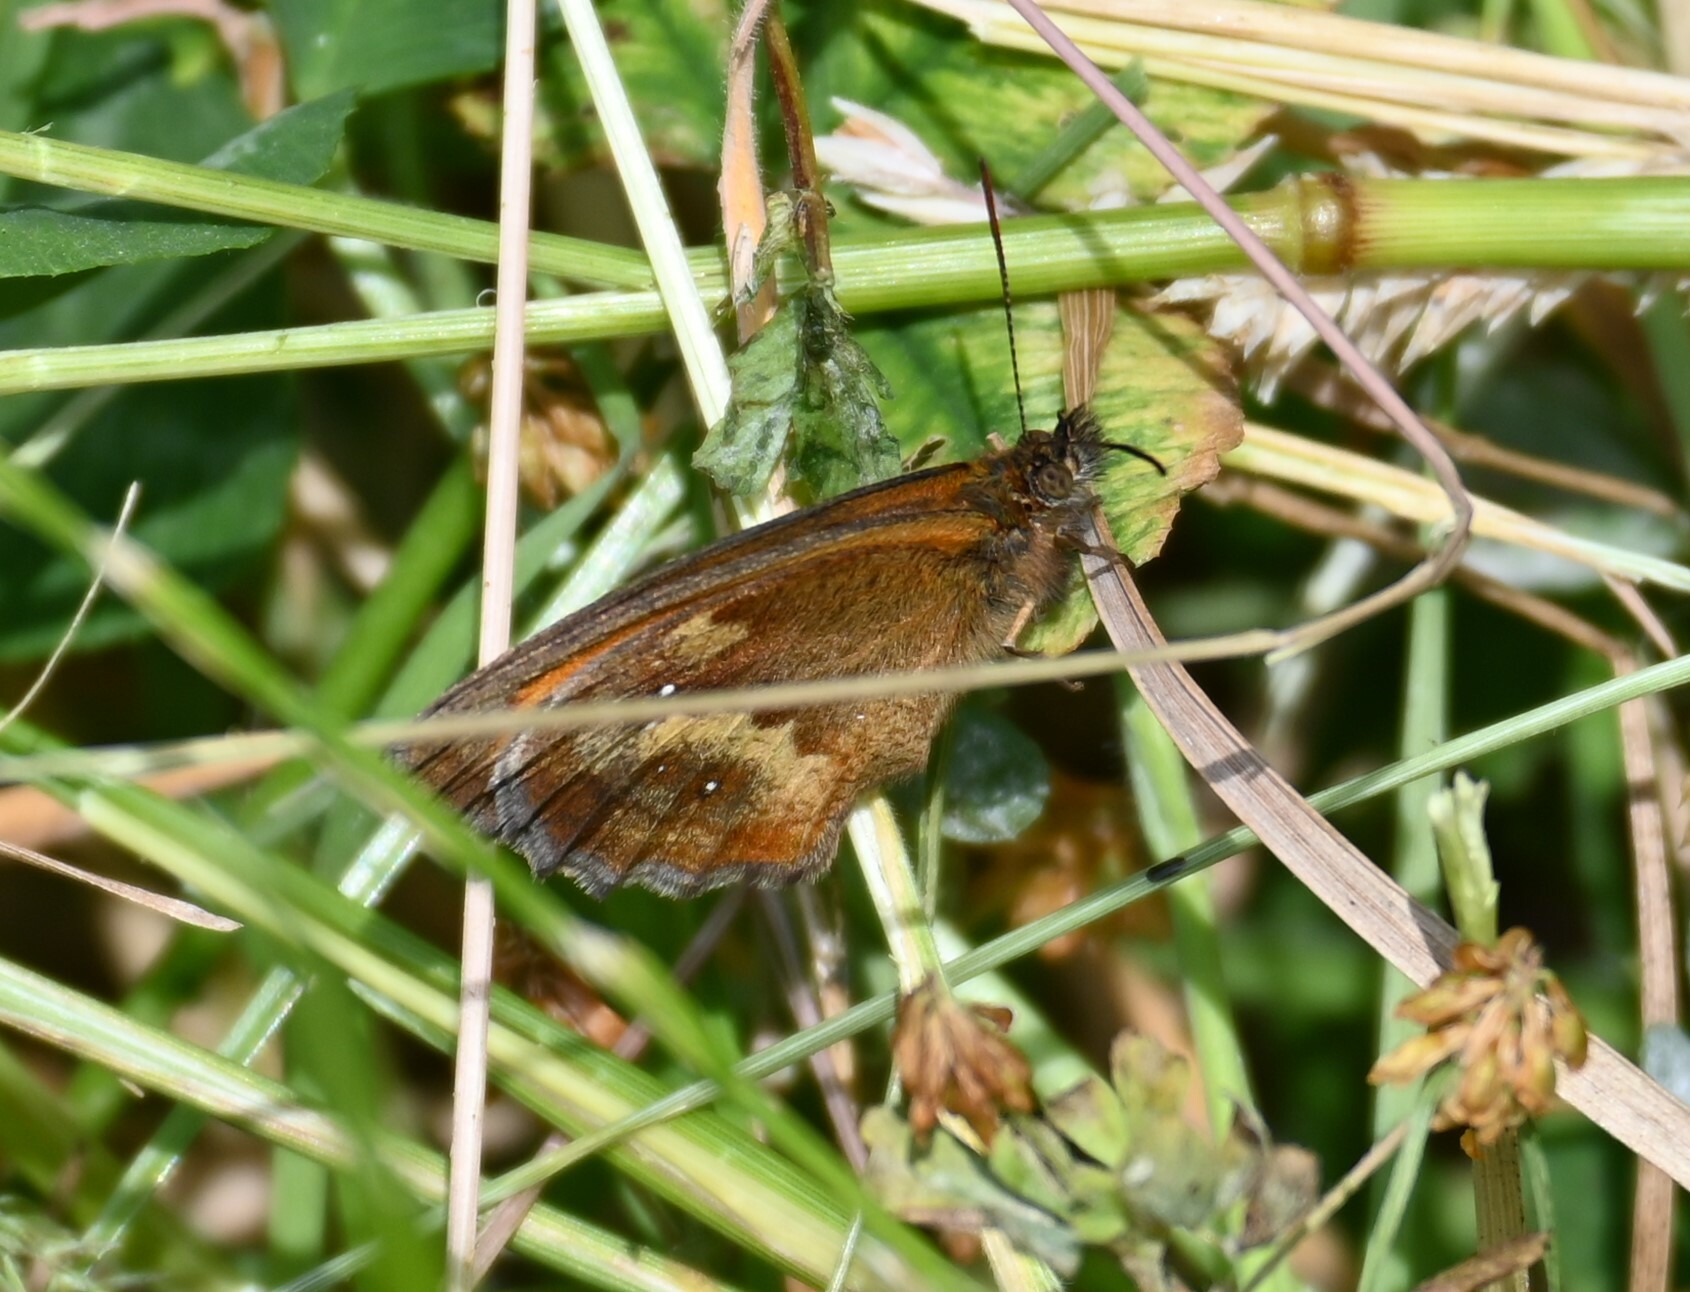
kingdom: Animalia
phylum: Arthropoda
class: Insecta
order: Lepidoptera
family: Nymphalidae
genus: Pyronia
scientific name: Pyronia tithonus
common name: Gatekeeper
